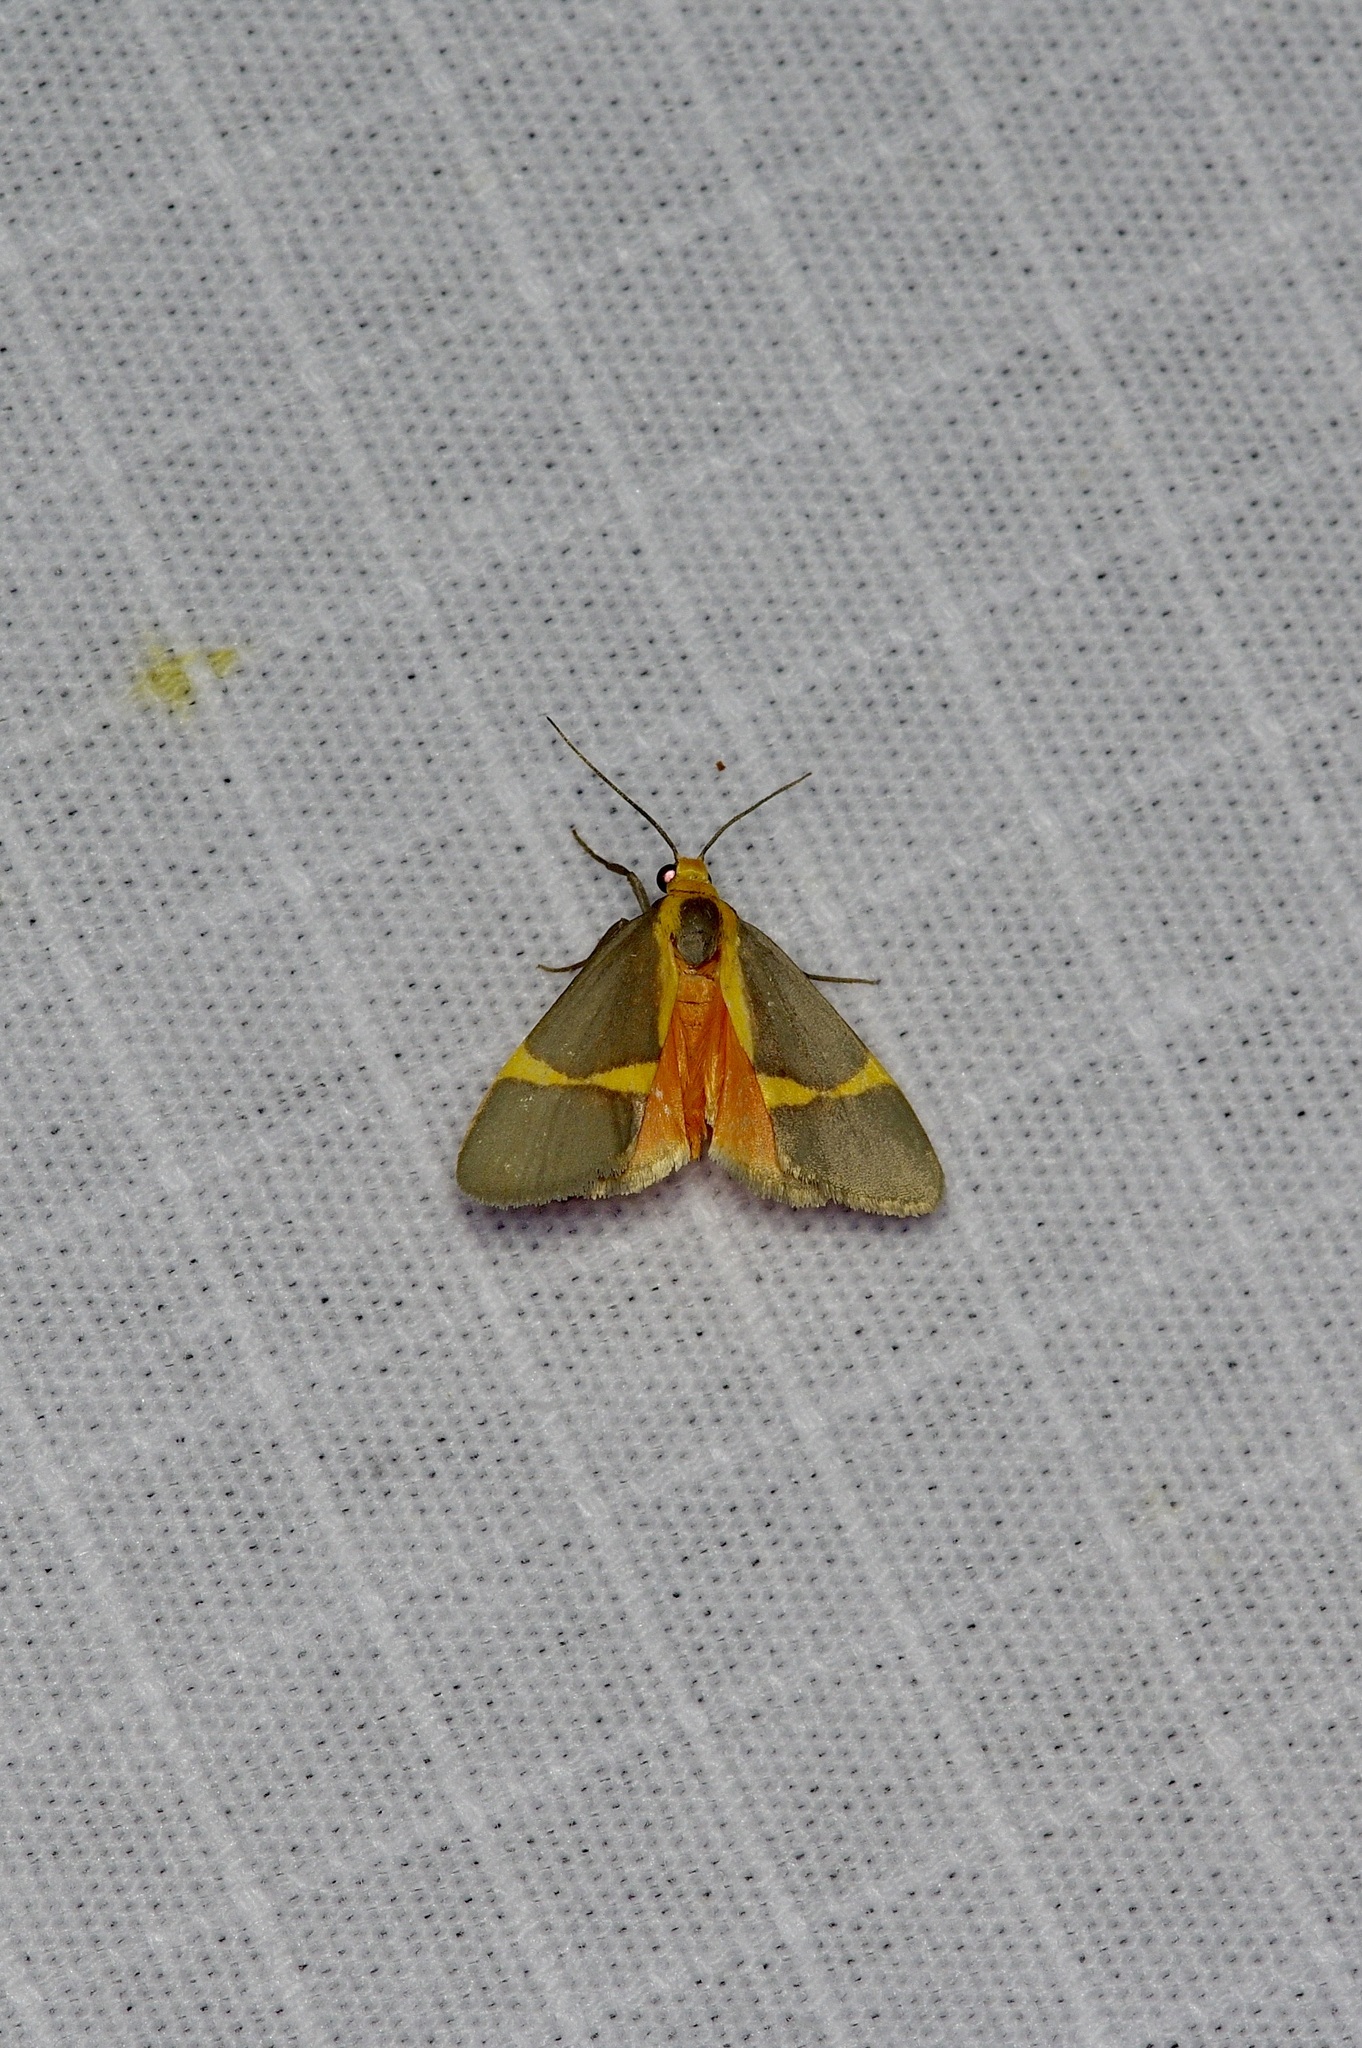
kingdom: Animalia
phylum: Arthropoda
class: Insecta
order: Lepidoptera
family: Erebidae
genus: Cisthene
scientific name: Cisthene tenuifascia
